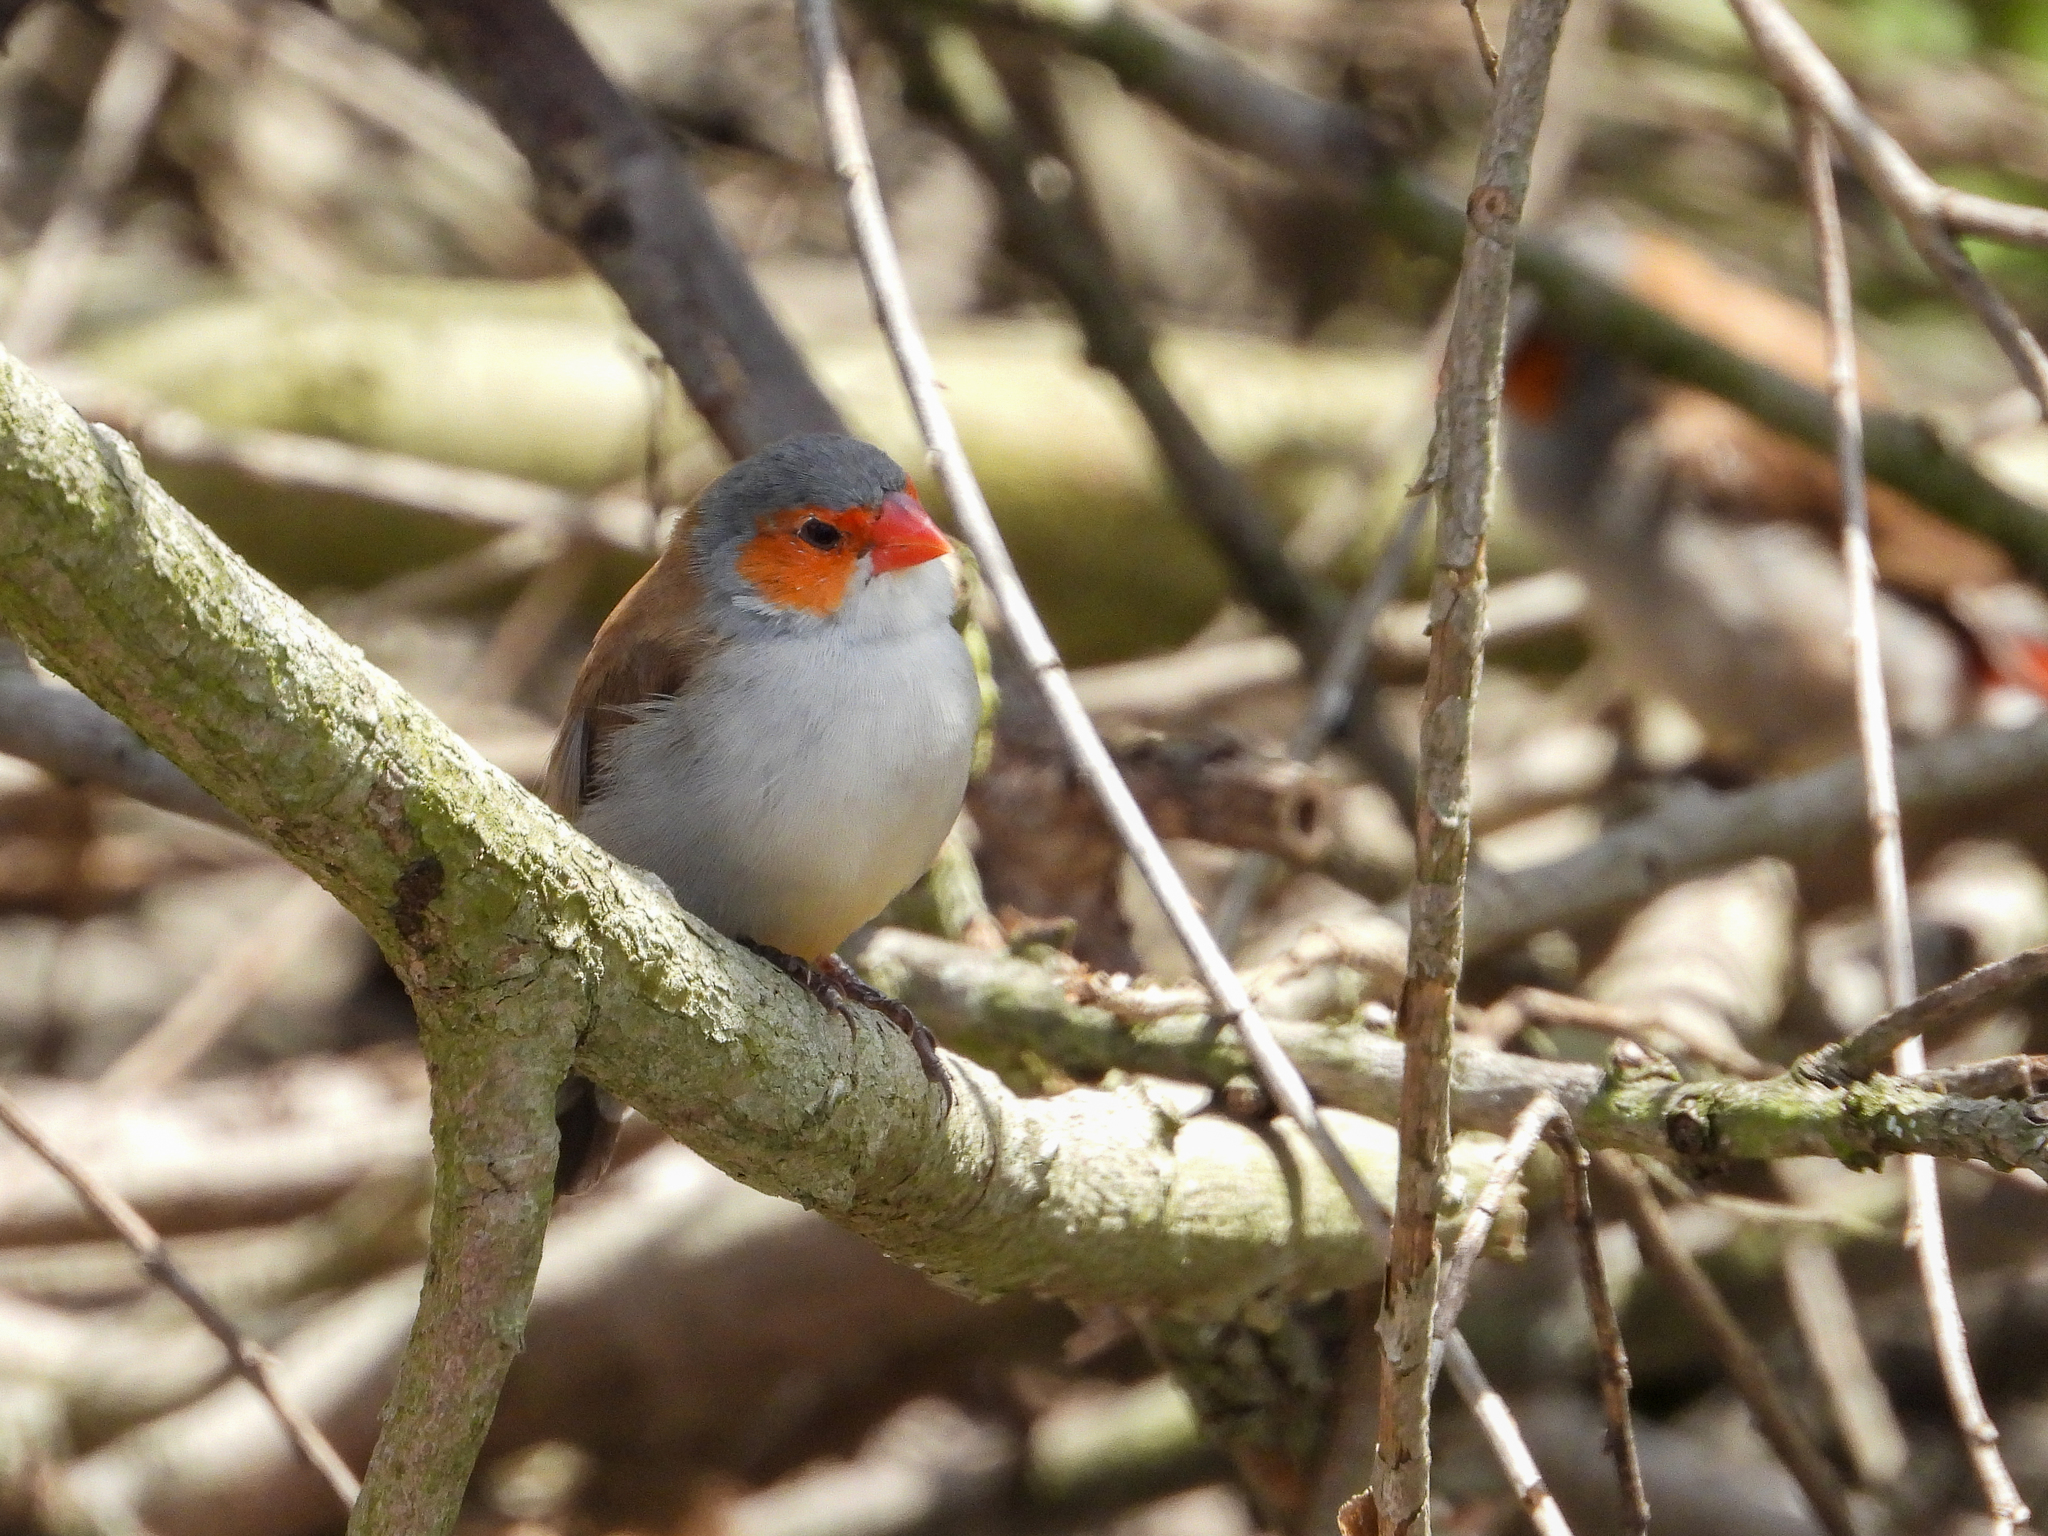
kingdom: Animalia
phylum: Chordata
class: Aves
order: Passeriformes
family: Estrildidae
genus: Estrilda
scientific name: Estrilda melpoda
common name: Orange-cheeked waxbill
